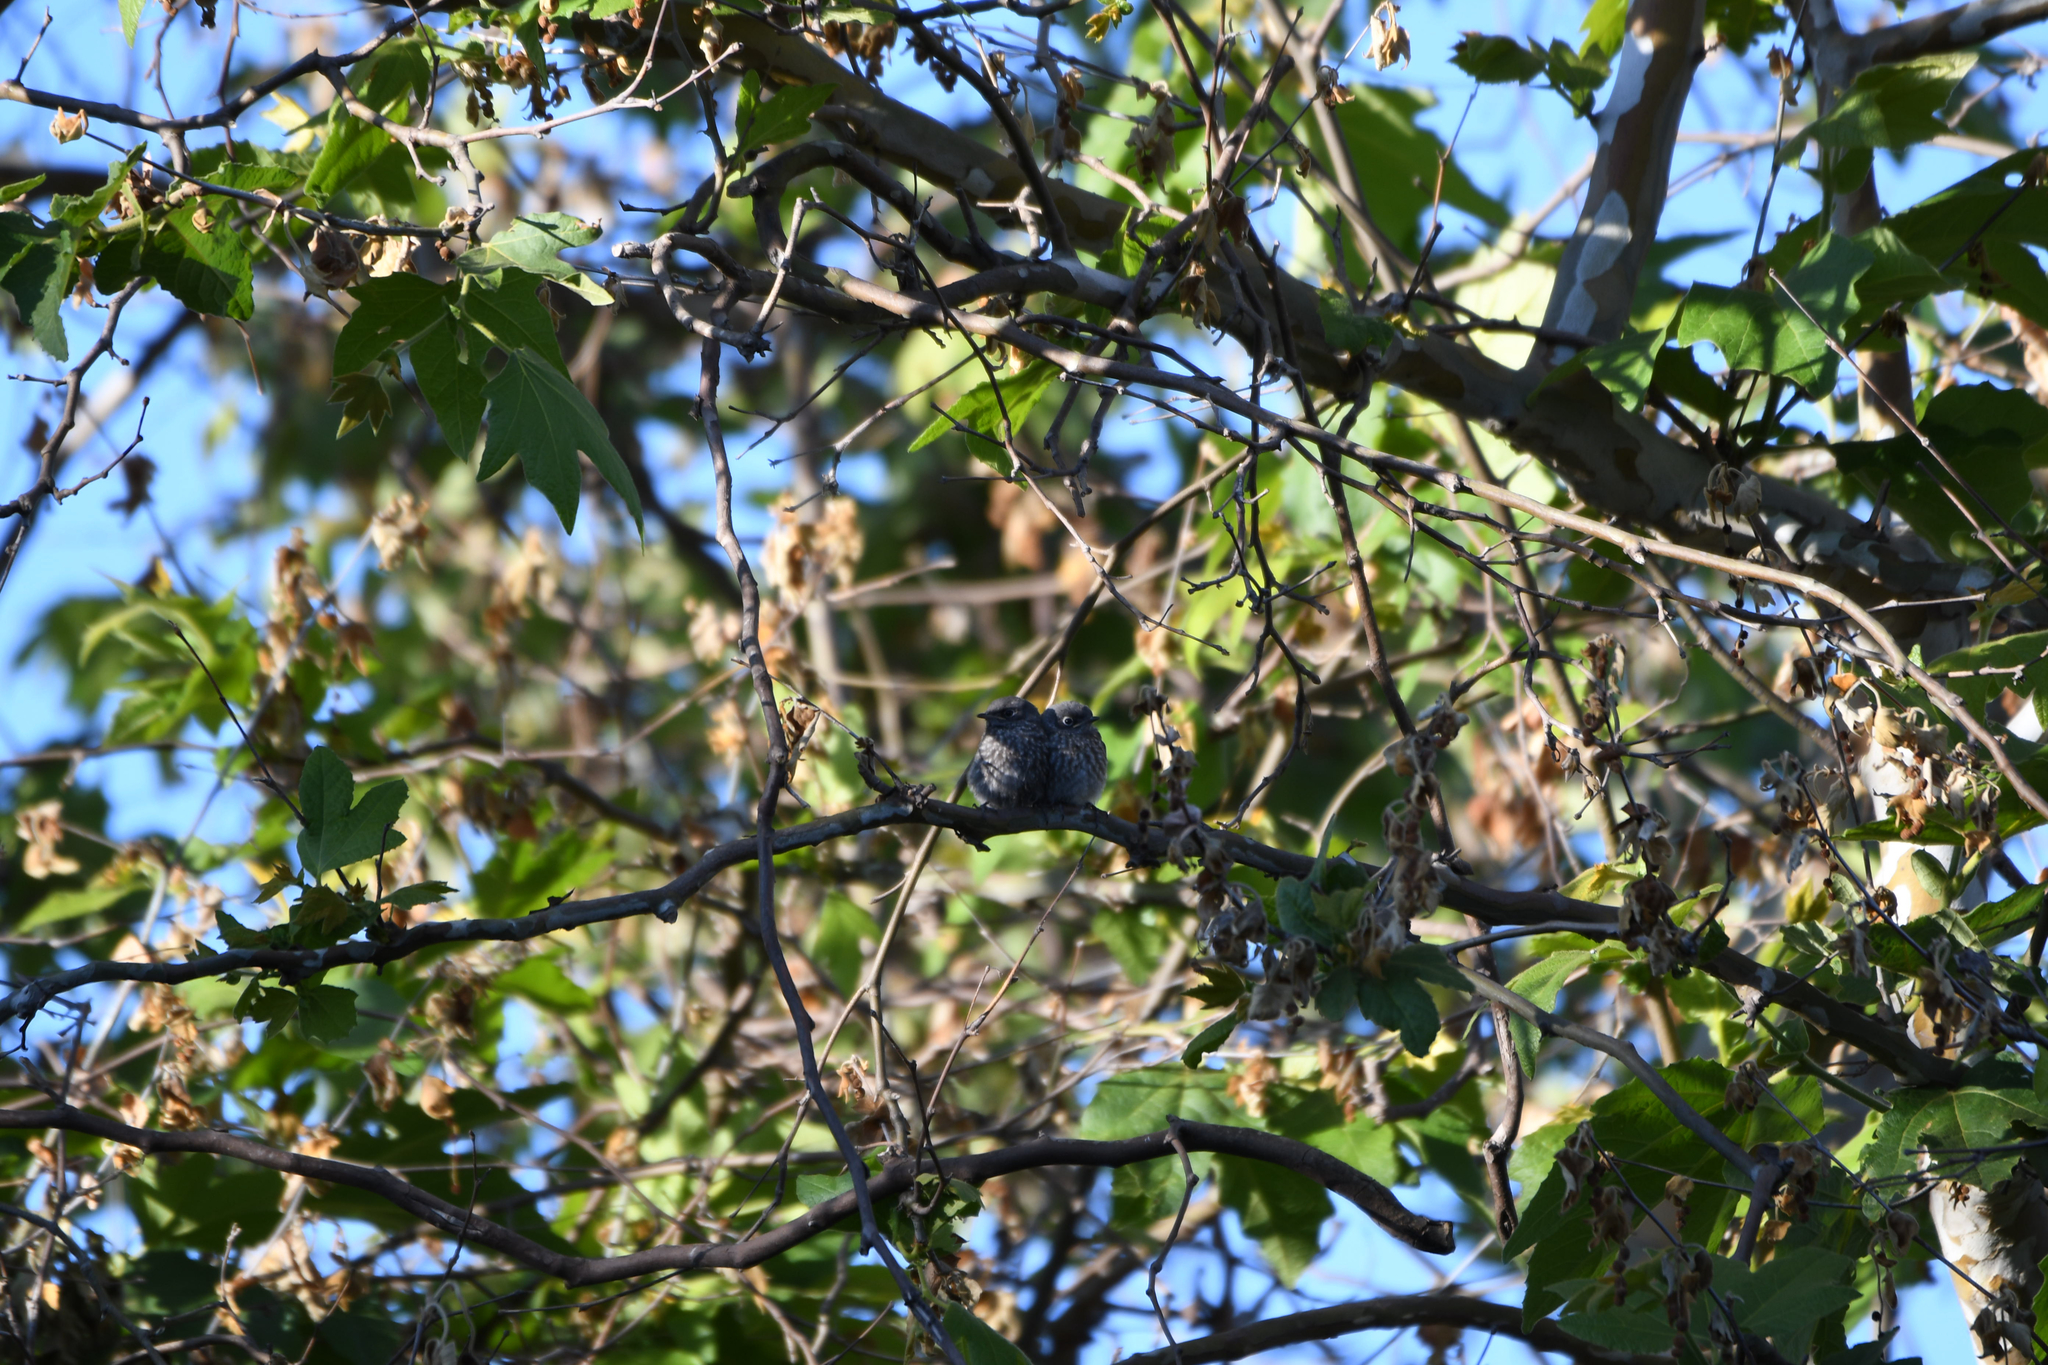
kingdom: Animalia
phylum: Chordata
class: Aves
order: Passeriformes
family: Turdidae
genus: Sialia
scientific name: Sialia mexicana
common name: Western bluebird
